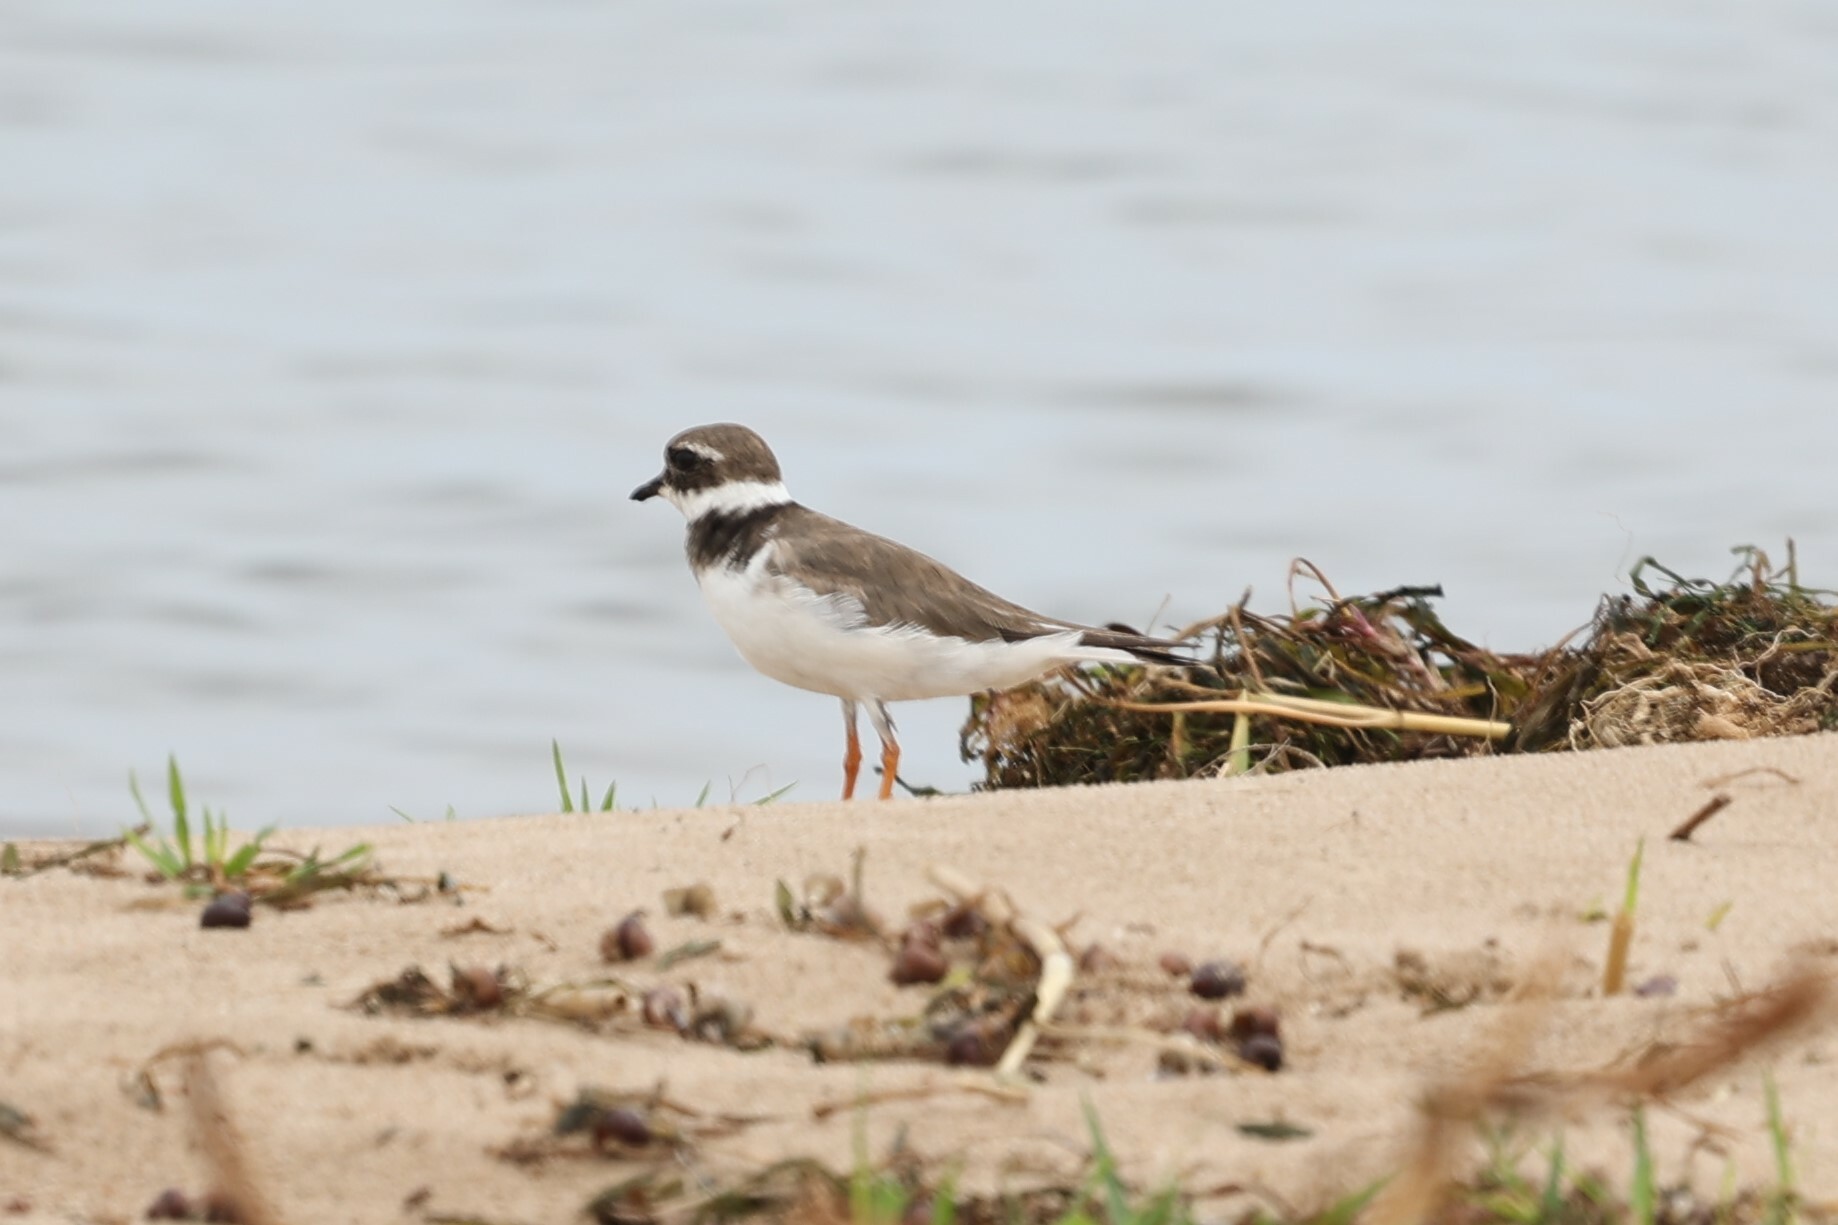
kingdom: Animalia
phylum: Chordata
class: Aves
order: Charadriiformes
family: Charadriidae
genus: Charadrius
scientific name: Charadrius hiaticula
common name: Common ringed plover
